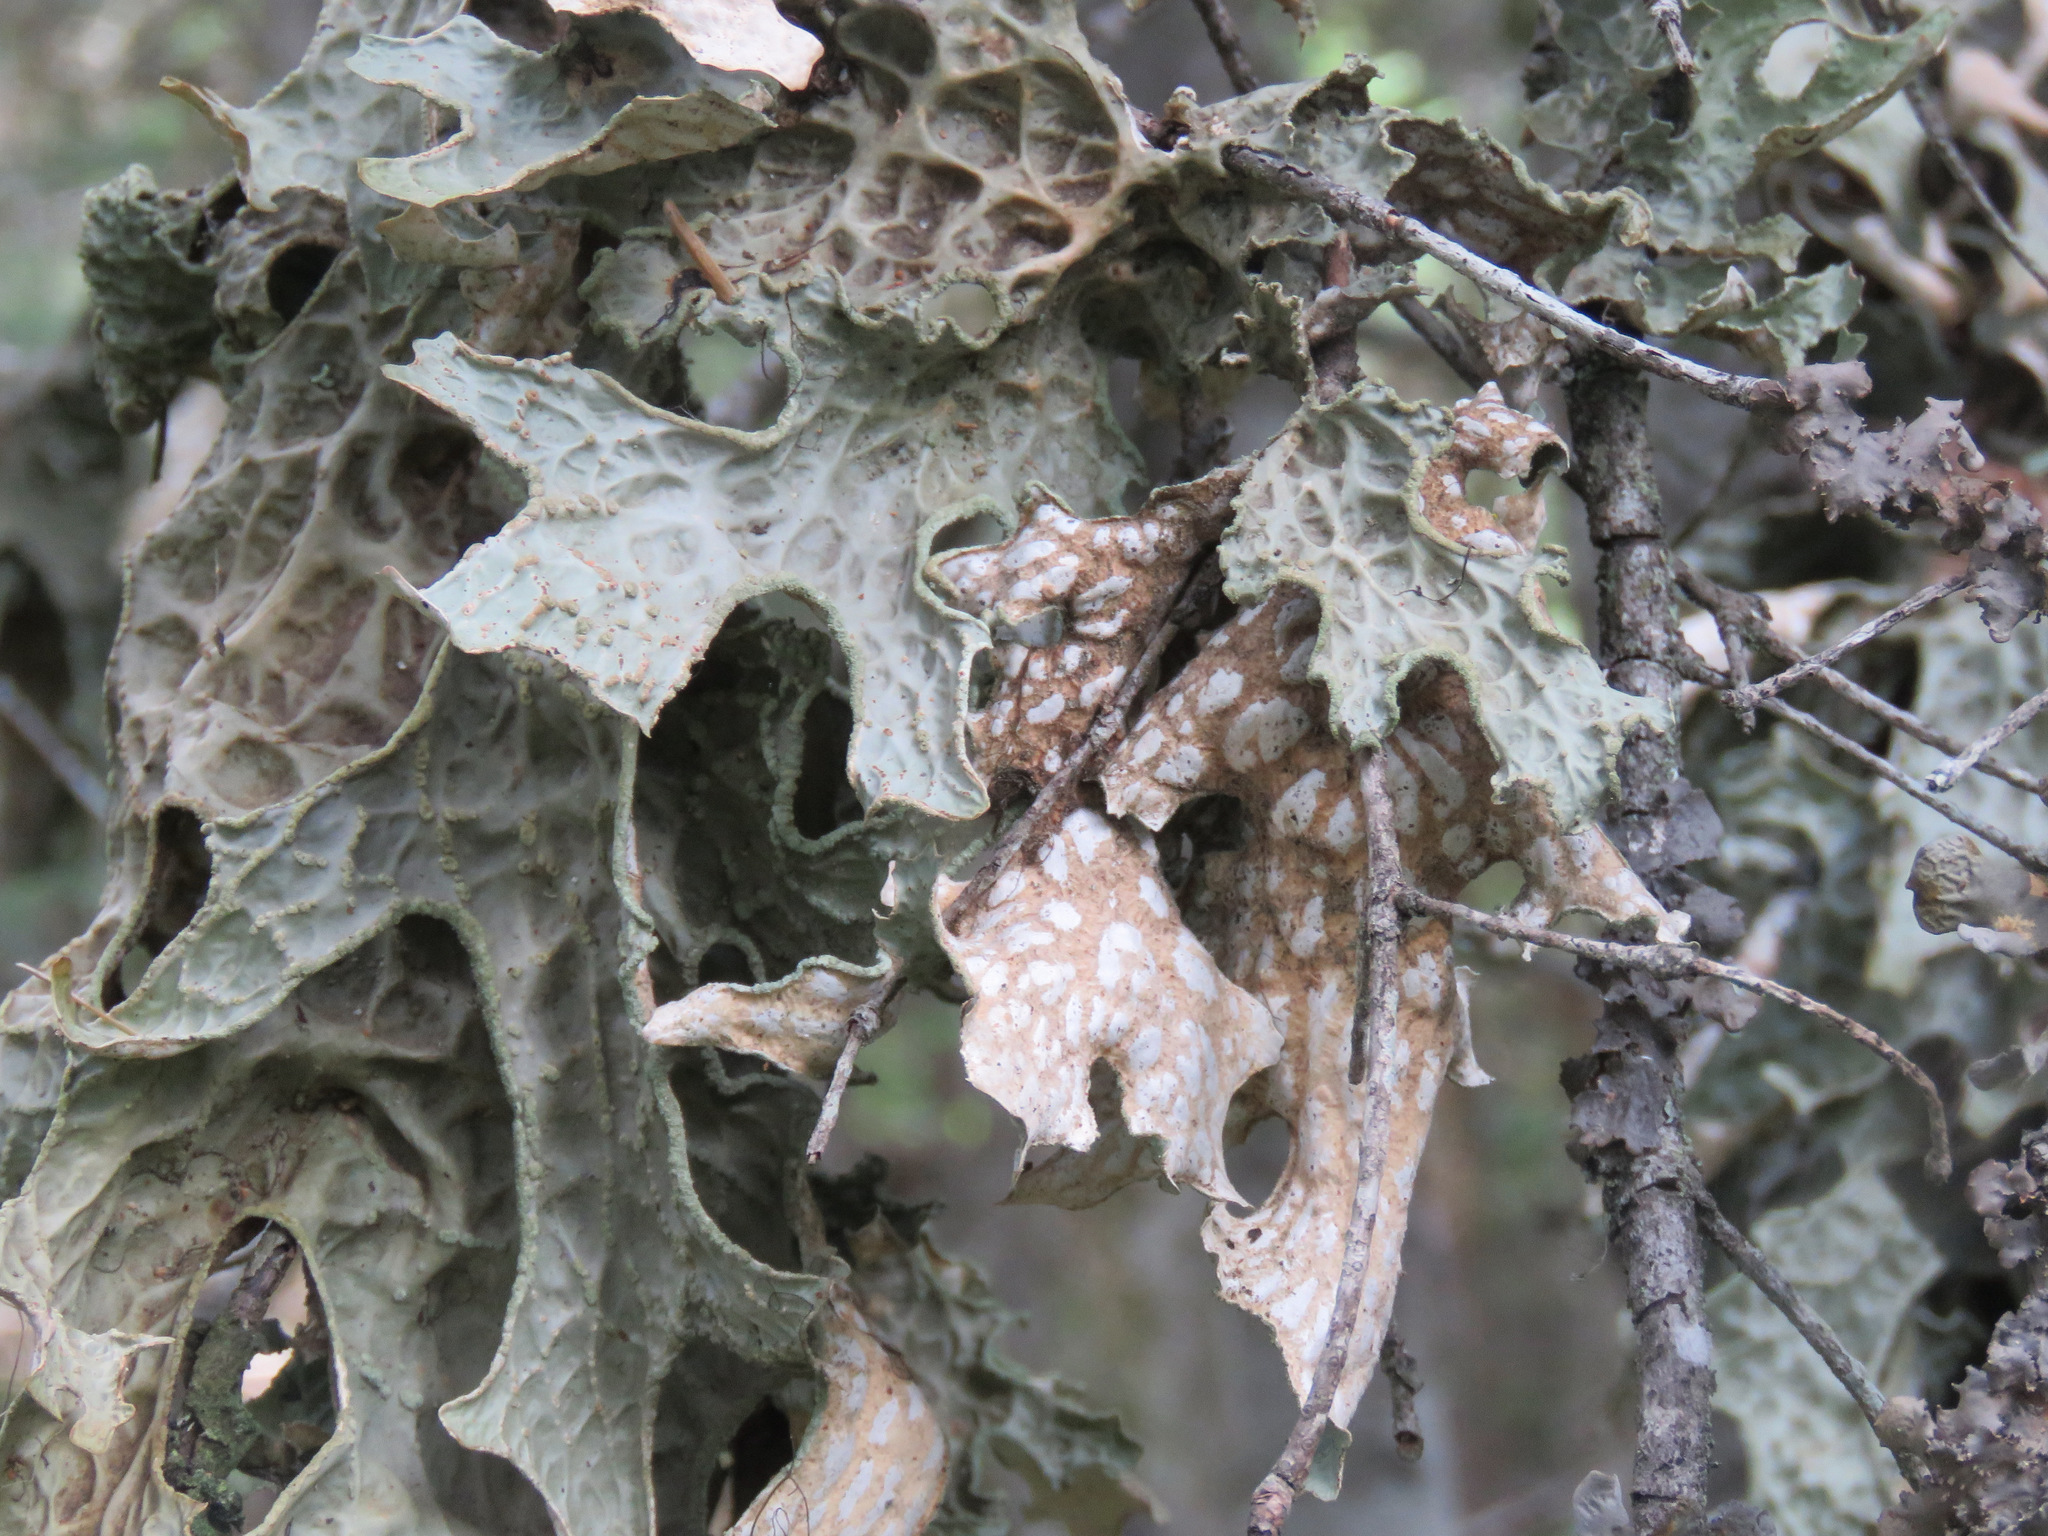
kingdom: Fungi
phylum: Ascomycota
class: Lecanoromycetes
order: Peltigerales
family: Lobariaceae
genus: Lobaria
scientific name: Lobaria pulmonaria
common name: Lungwort
